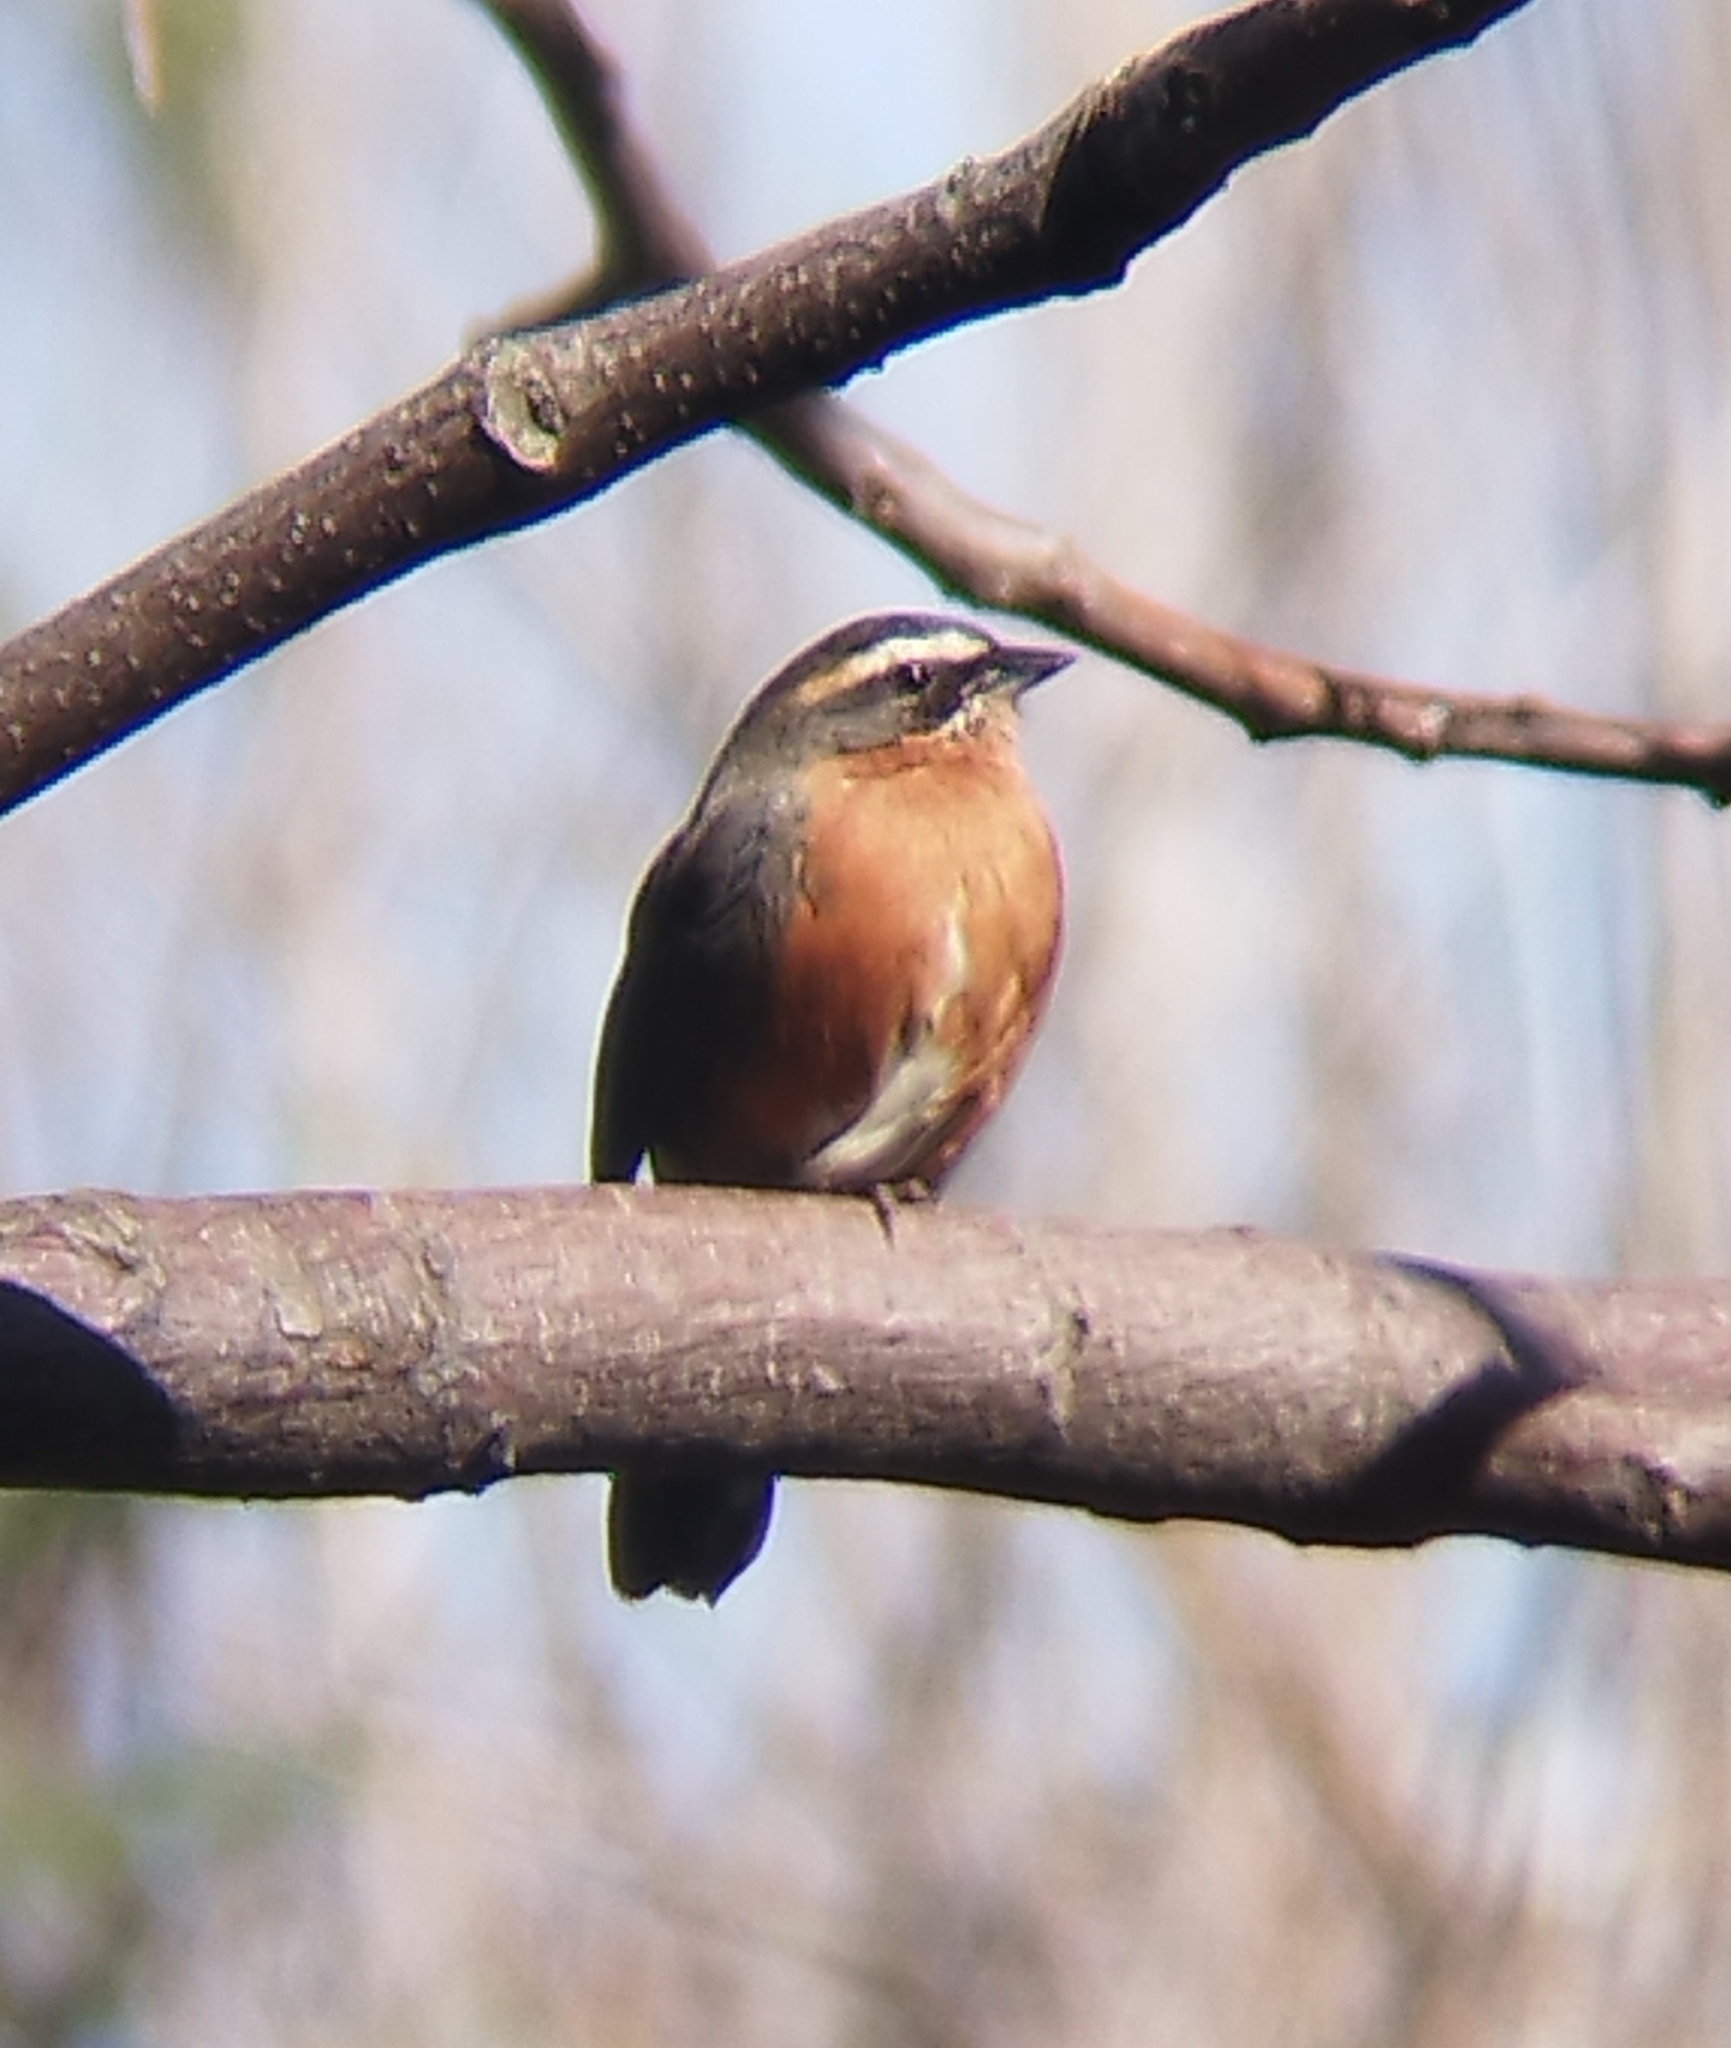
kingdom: Animalia
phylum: Chordata
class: Aves
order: Passeriformes
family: Thraupidae
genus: Poospiza
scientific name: Poospiza nigrorufa
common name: Black-and-rufous warbling finch
